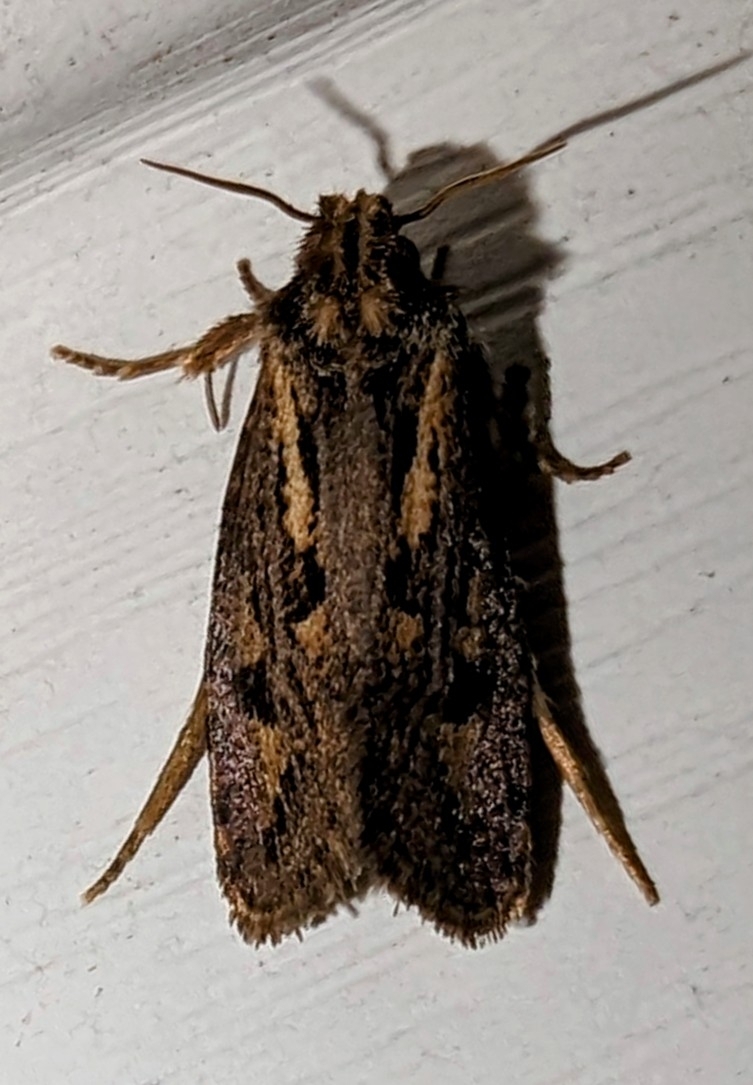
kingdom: Animalia
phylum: Arthropoda
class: Insecta
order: Lepidoptera
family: Tineidae
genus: Acrolophus
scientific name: Acrolophus popeanella
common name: Clemens' grass tubeworm moth
